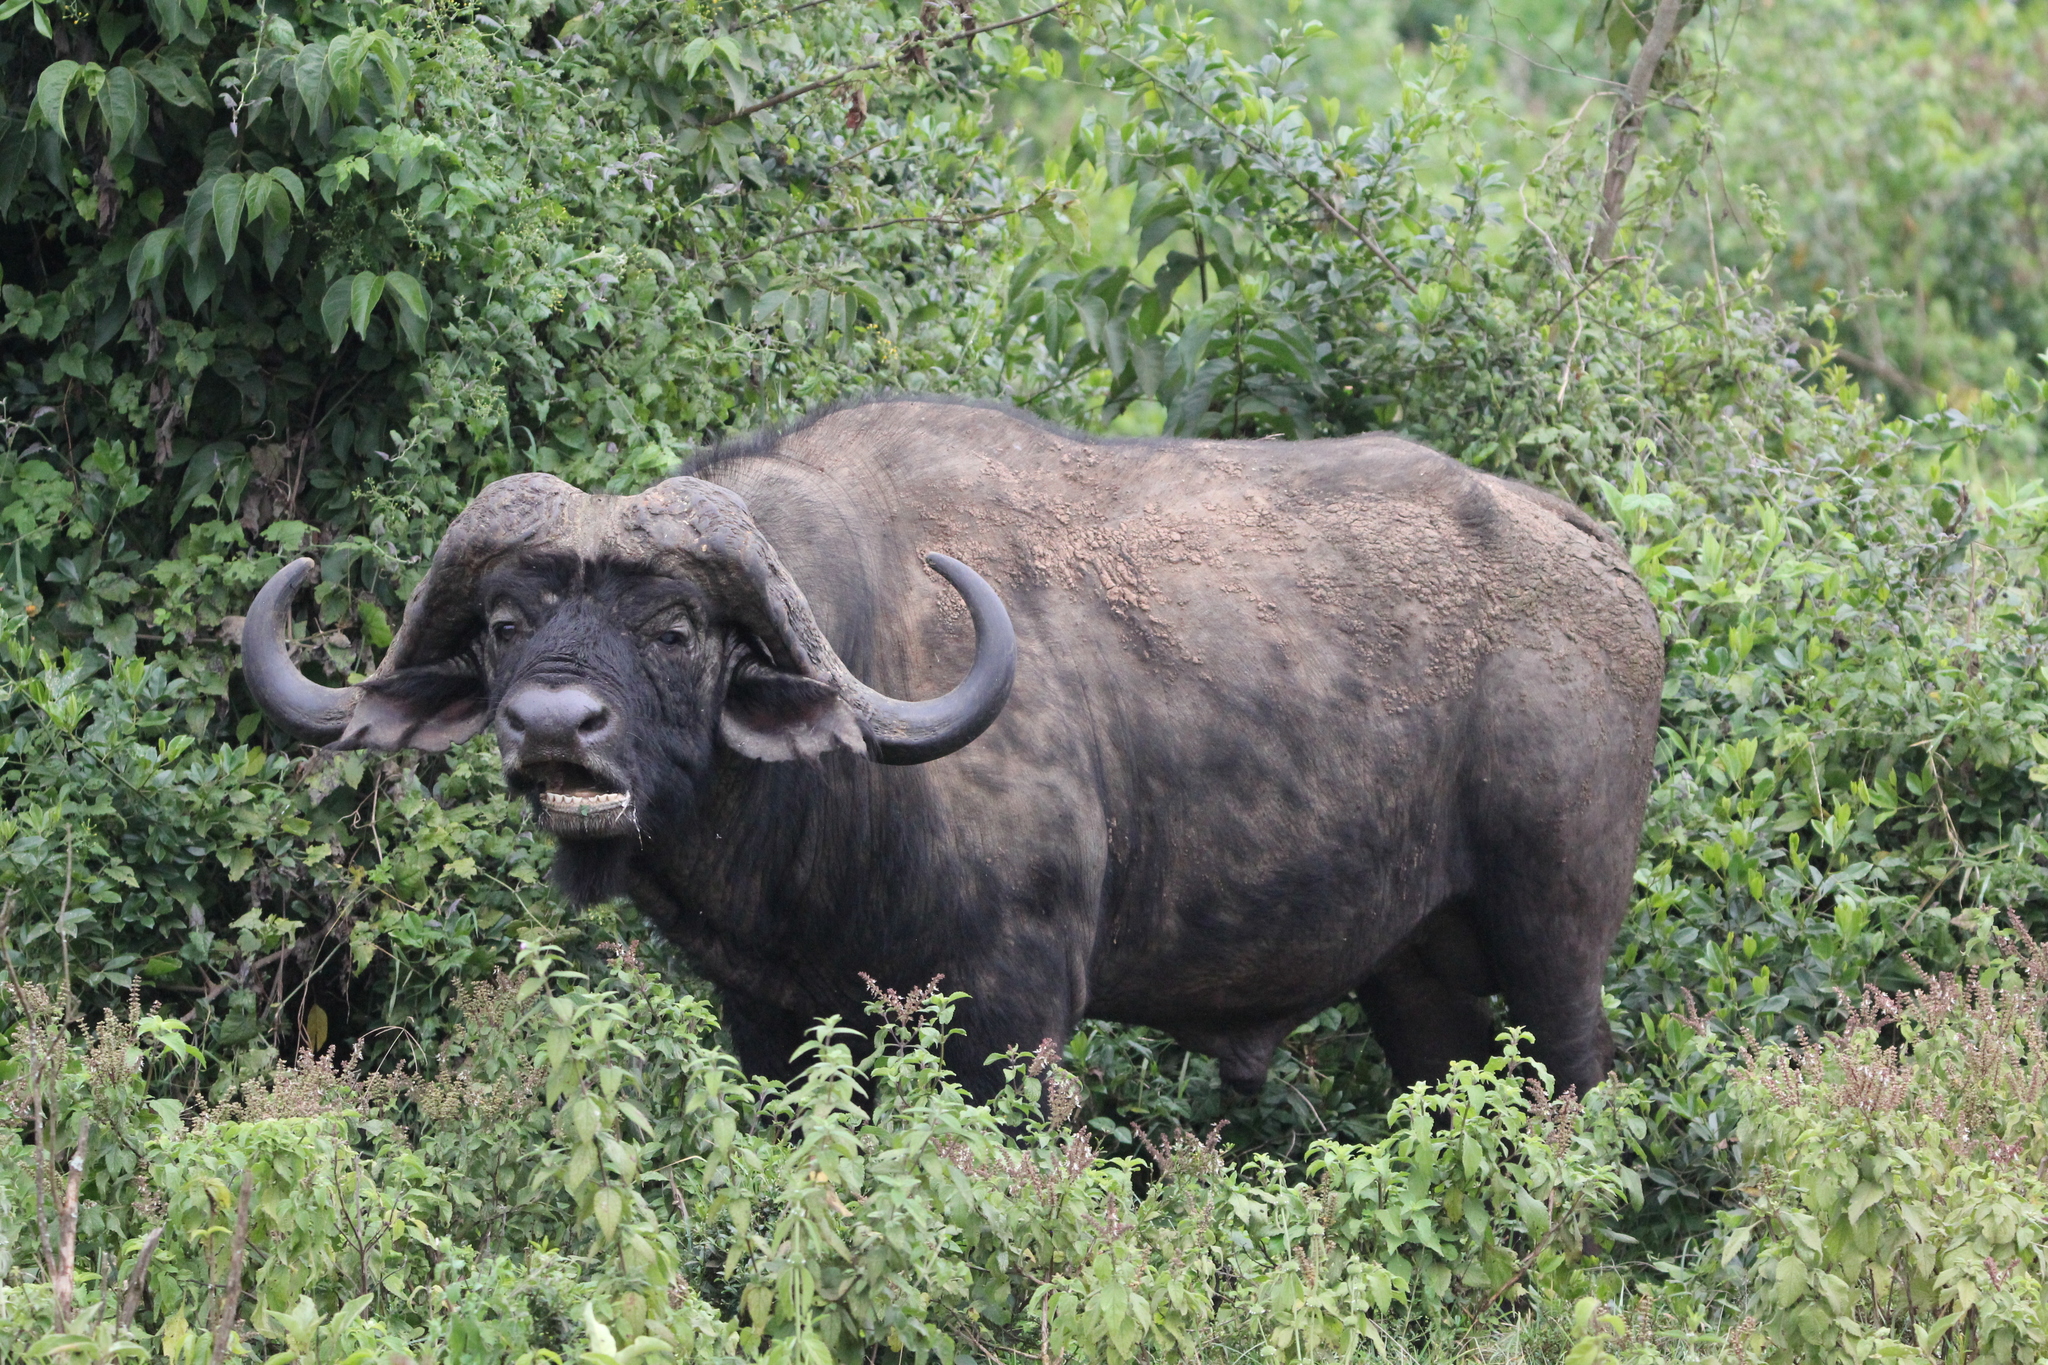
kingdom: Animalia
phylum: Chordata
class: Mammalia
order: Artiodactyla
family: Bovidae
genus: Syncerus
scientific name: Syncerus caffer
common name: African buffalo
